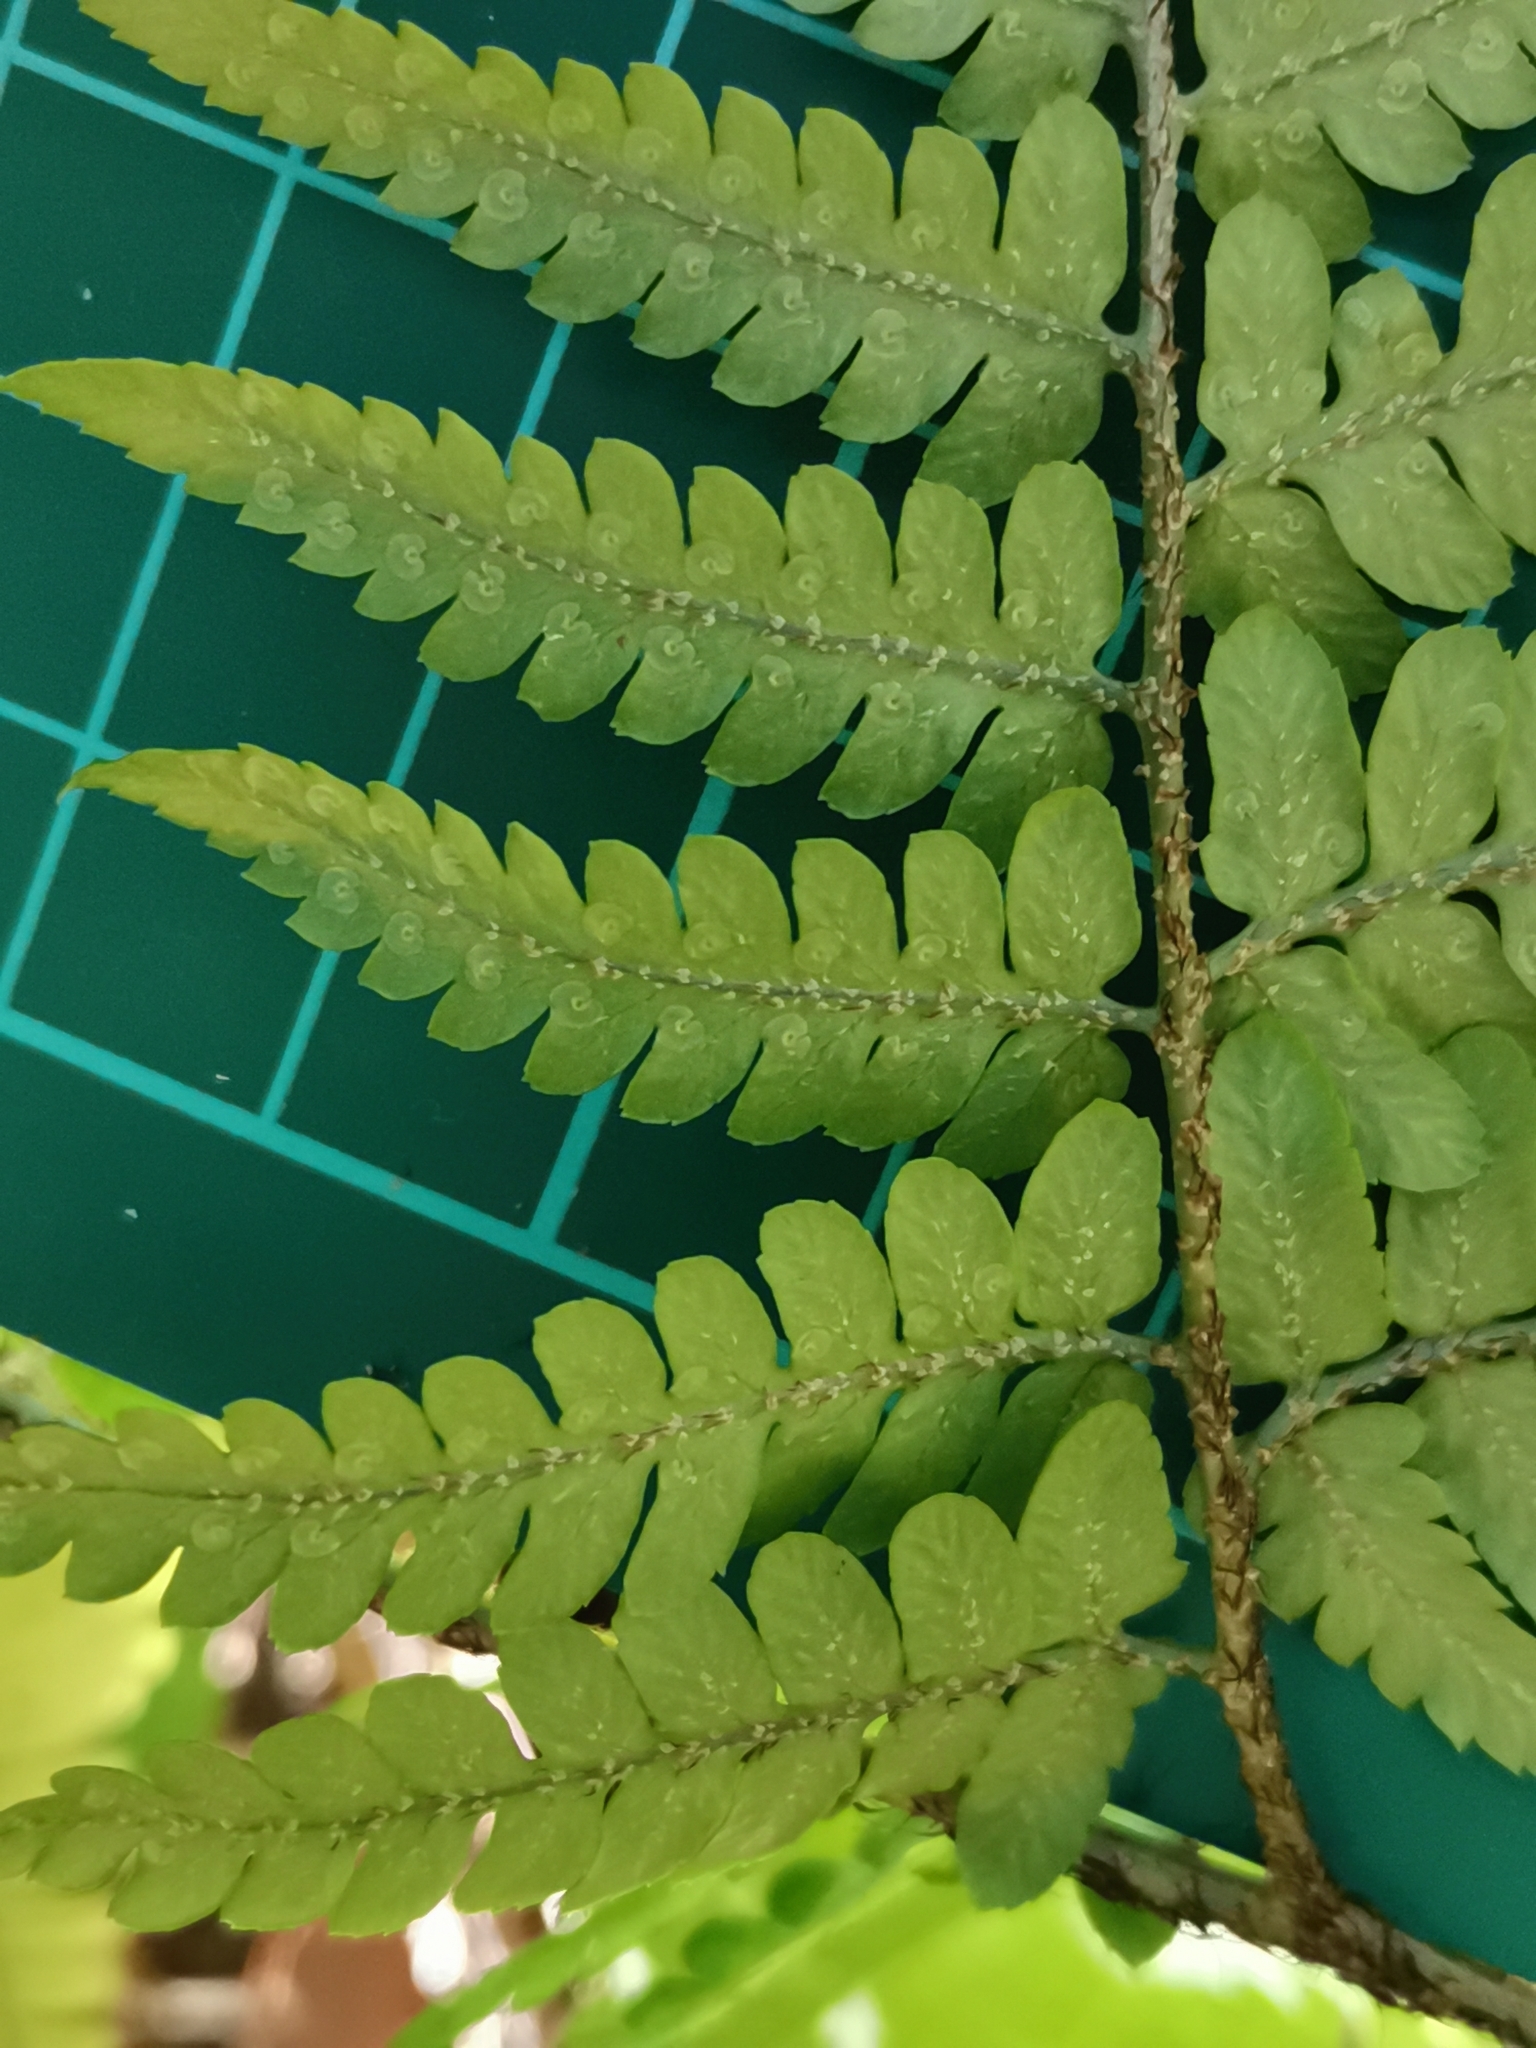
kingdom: Plantae
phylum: Tracheophyta
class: Polypodiopsida
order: Polypodiales
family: Dryopteridaceae
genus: Dryopteris
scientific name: Dryopteris sacrosancta
